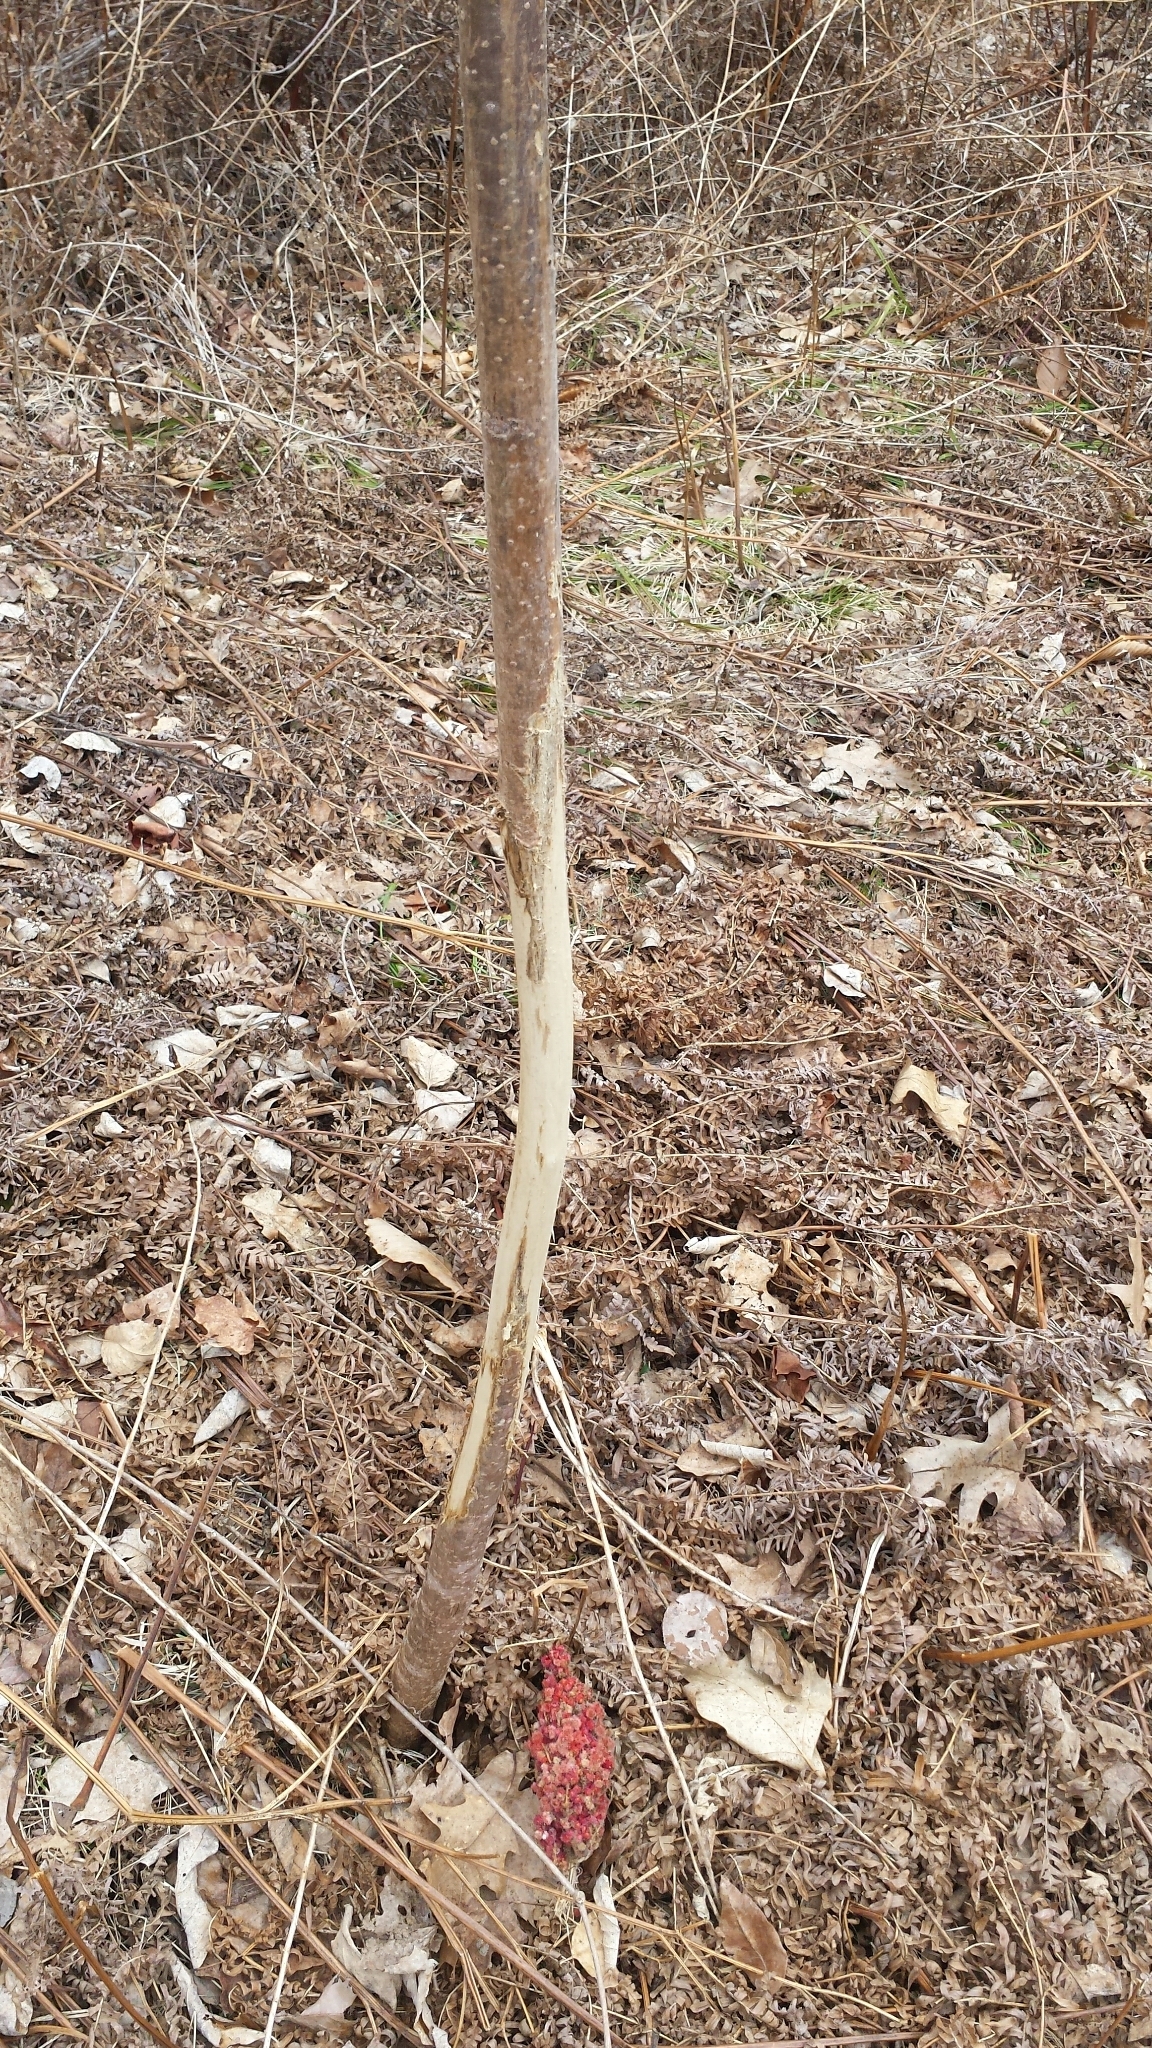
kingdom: Animalia
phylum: Chordata
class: Mammalia
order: Artiodactyla
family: Cervidae
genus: Odocoileus
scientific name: Odocoileus virginianus
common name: White-tailed deer
